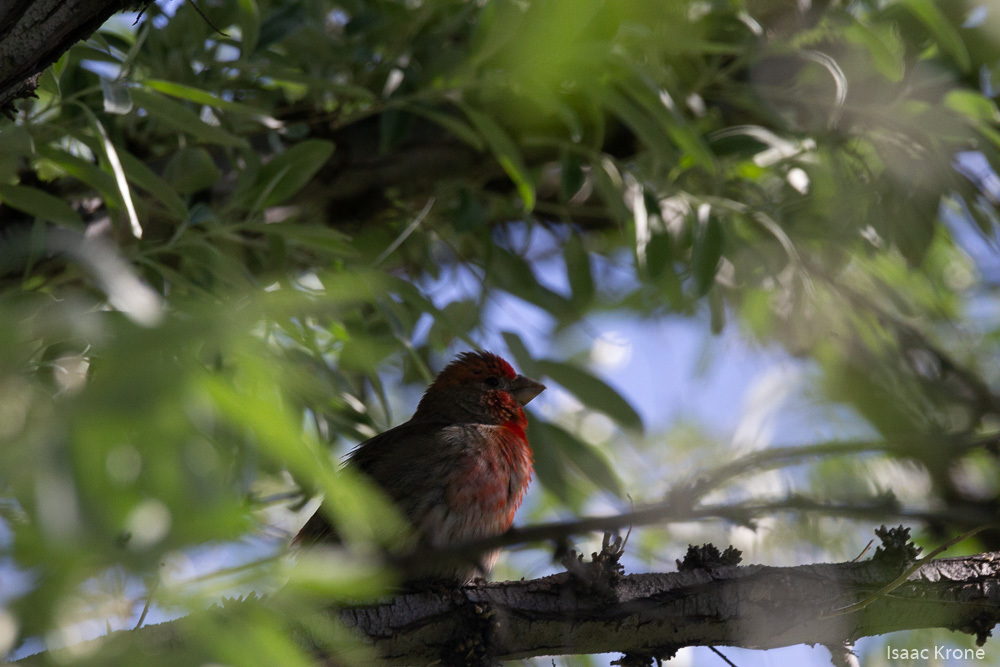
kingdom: Animalia
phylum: Chordata
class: Aves
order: Passeriformes
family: Fringillidae
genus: Haemorhous
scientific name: Haemorhous mexicanus
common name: House finch
